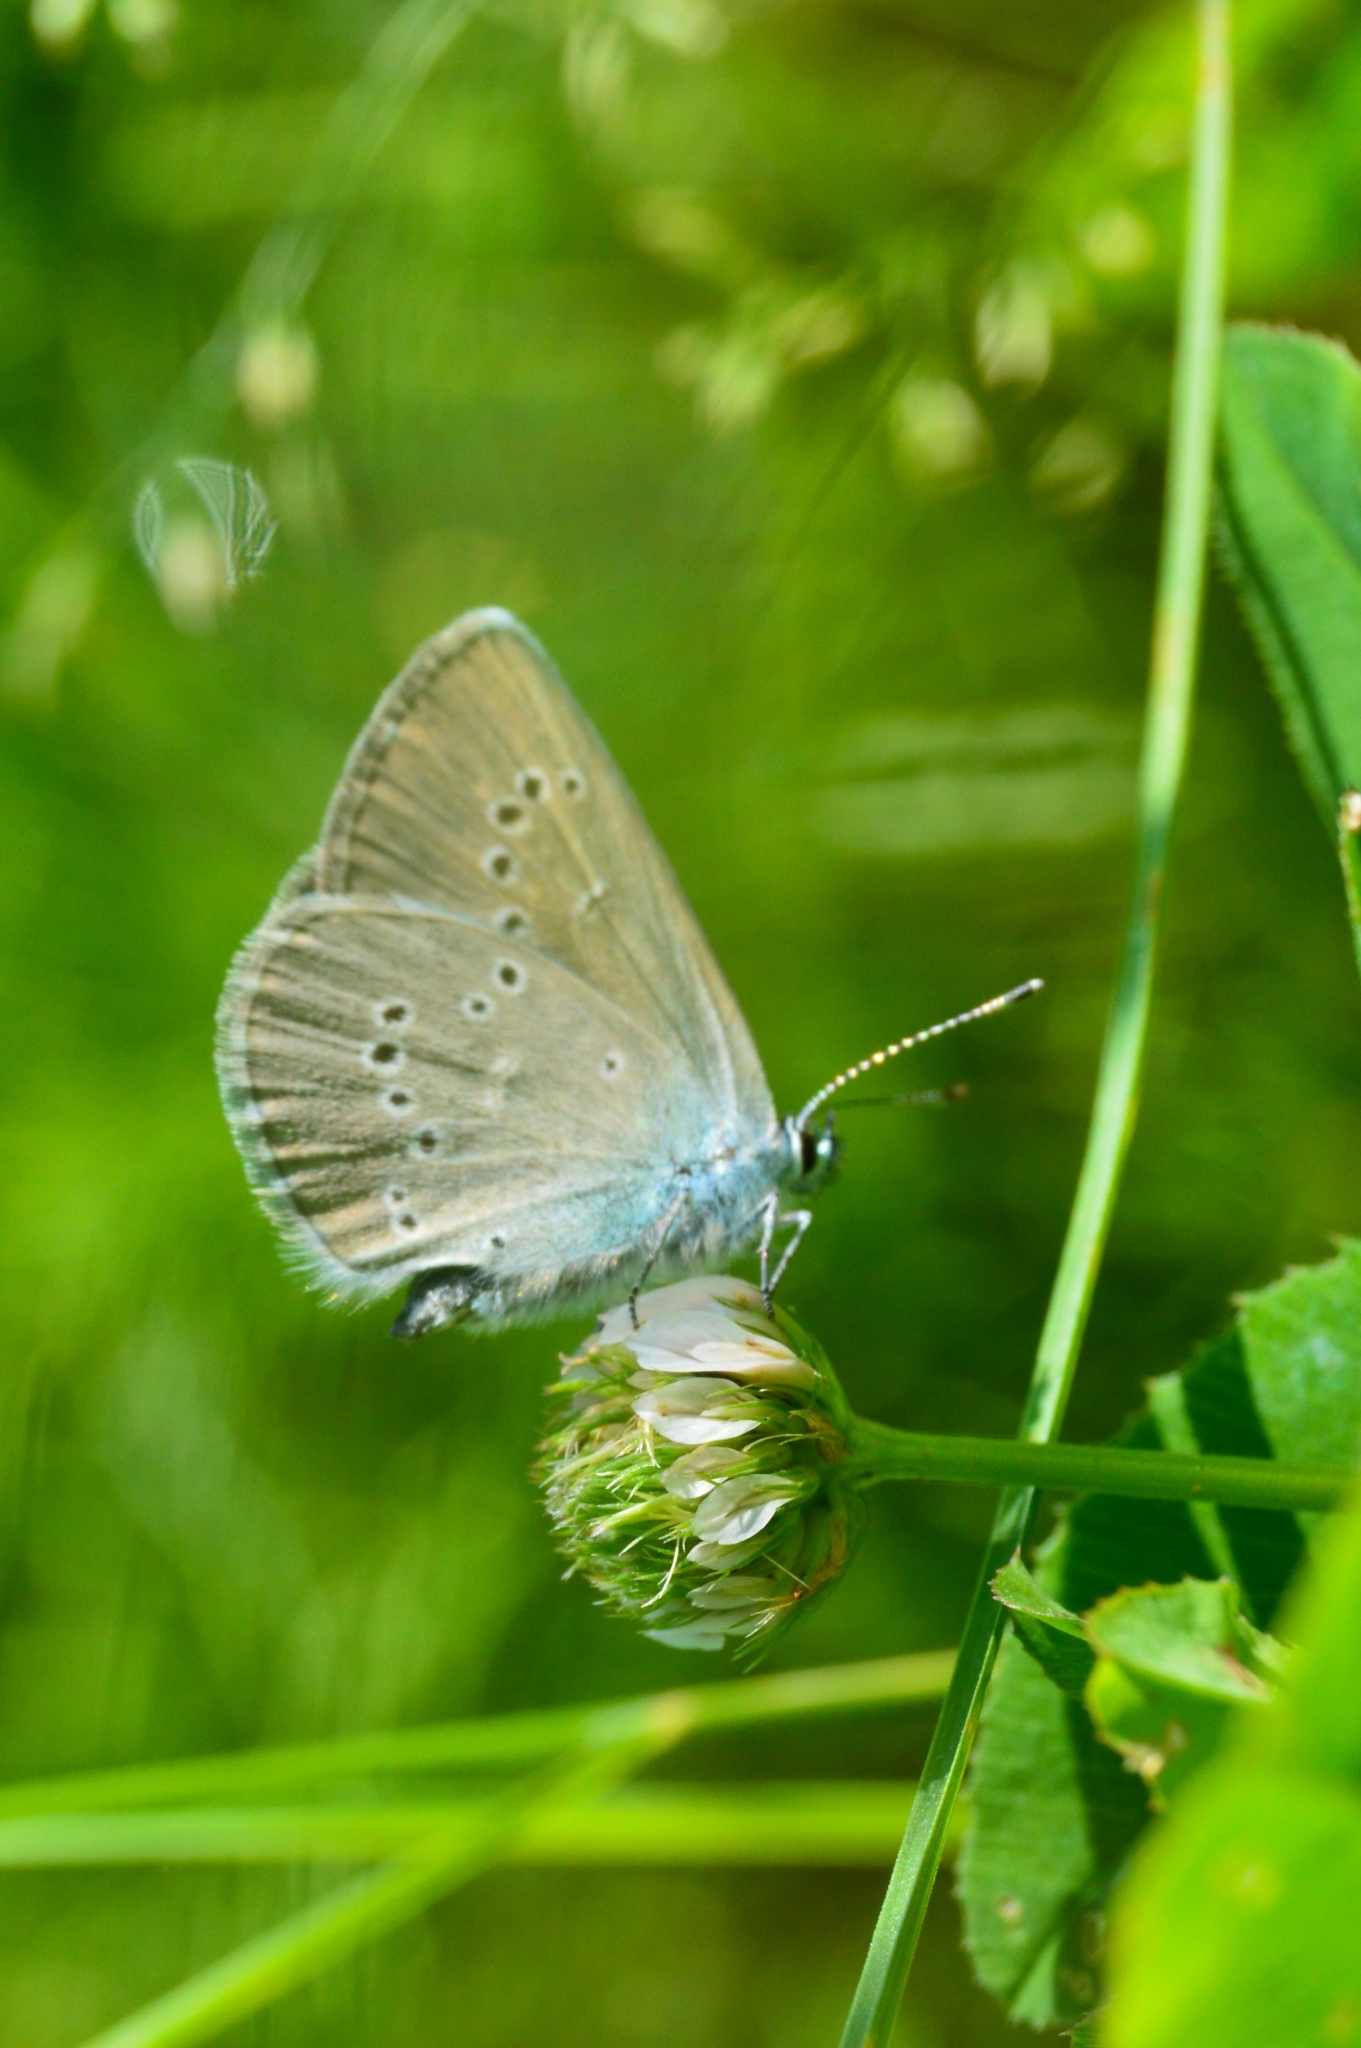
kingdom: Animalia
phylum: Arthropoda
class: Insecta
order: Lepidoptera
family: Lycaenidae
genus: Cyaniris
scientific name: Cyaniris semiargus
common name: Mazarine blue
